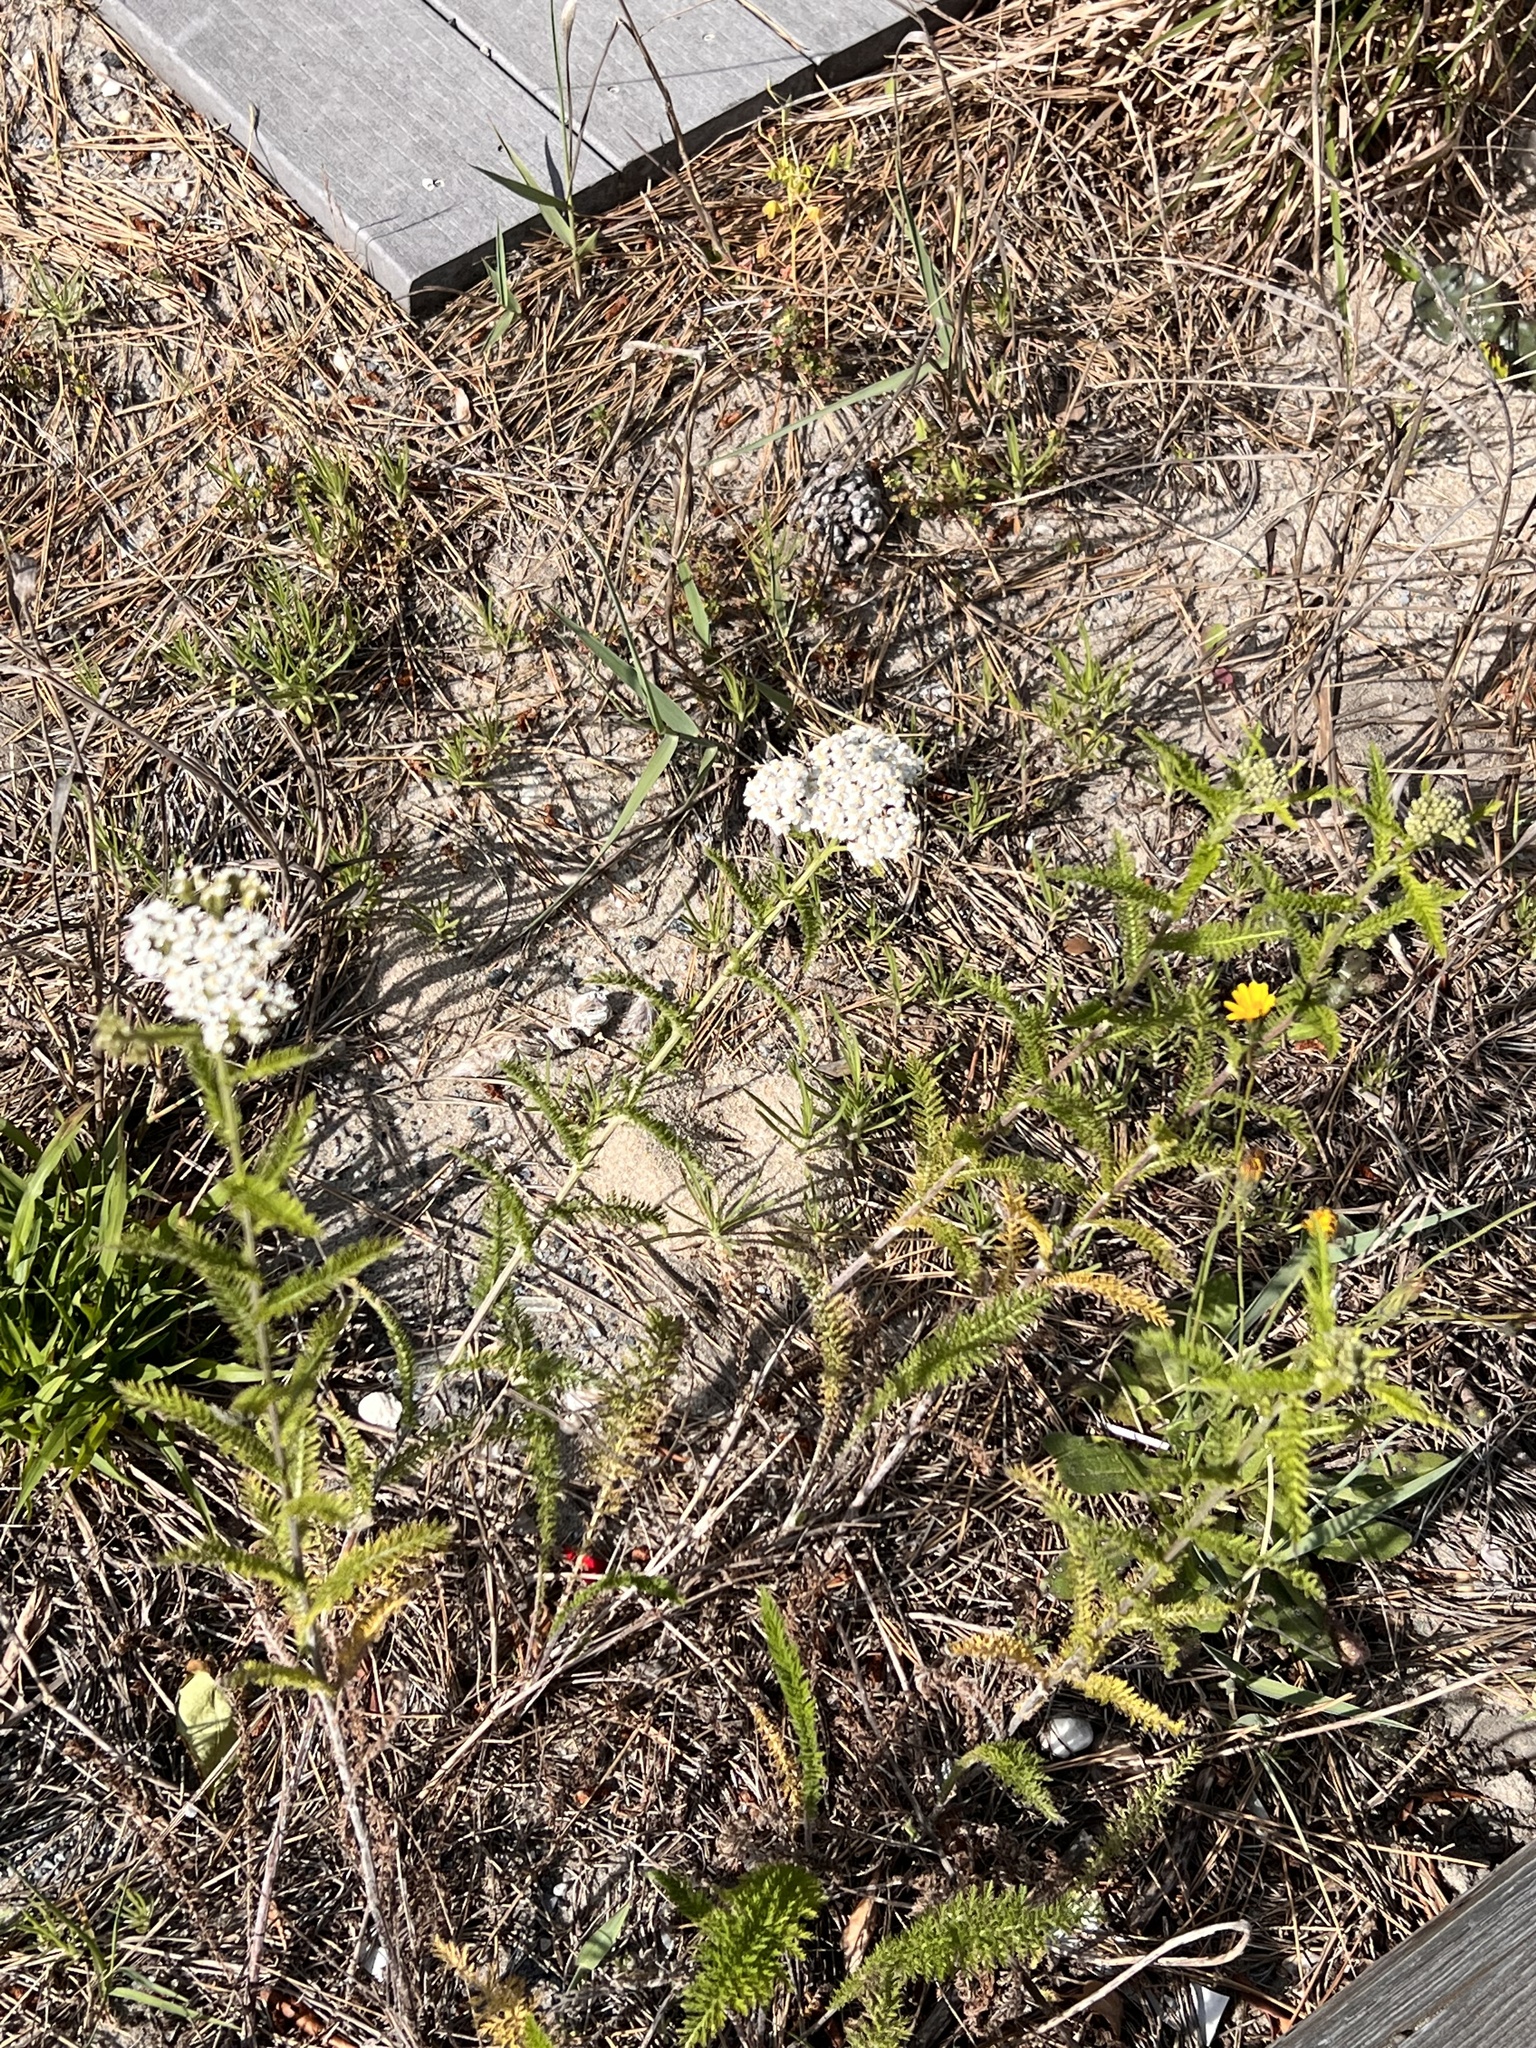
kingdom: Plantae
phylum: Tracheophyta
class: Magnoliopsida
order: Asterales
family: Asteraceae
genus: Achillea
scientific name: Achillea millefolium
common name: Yarrow
